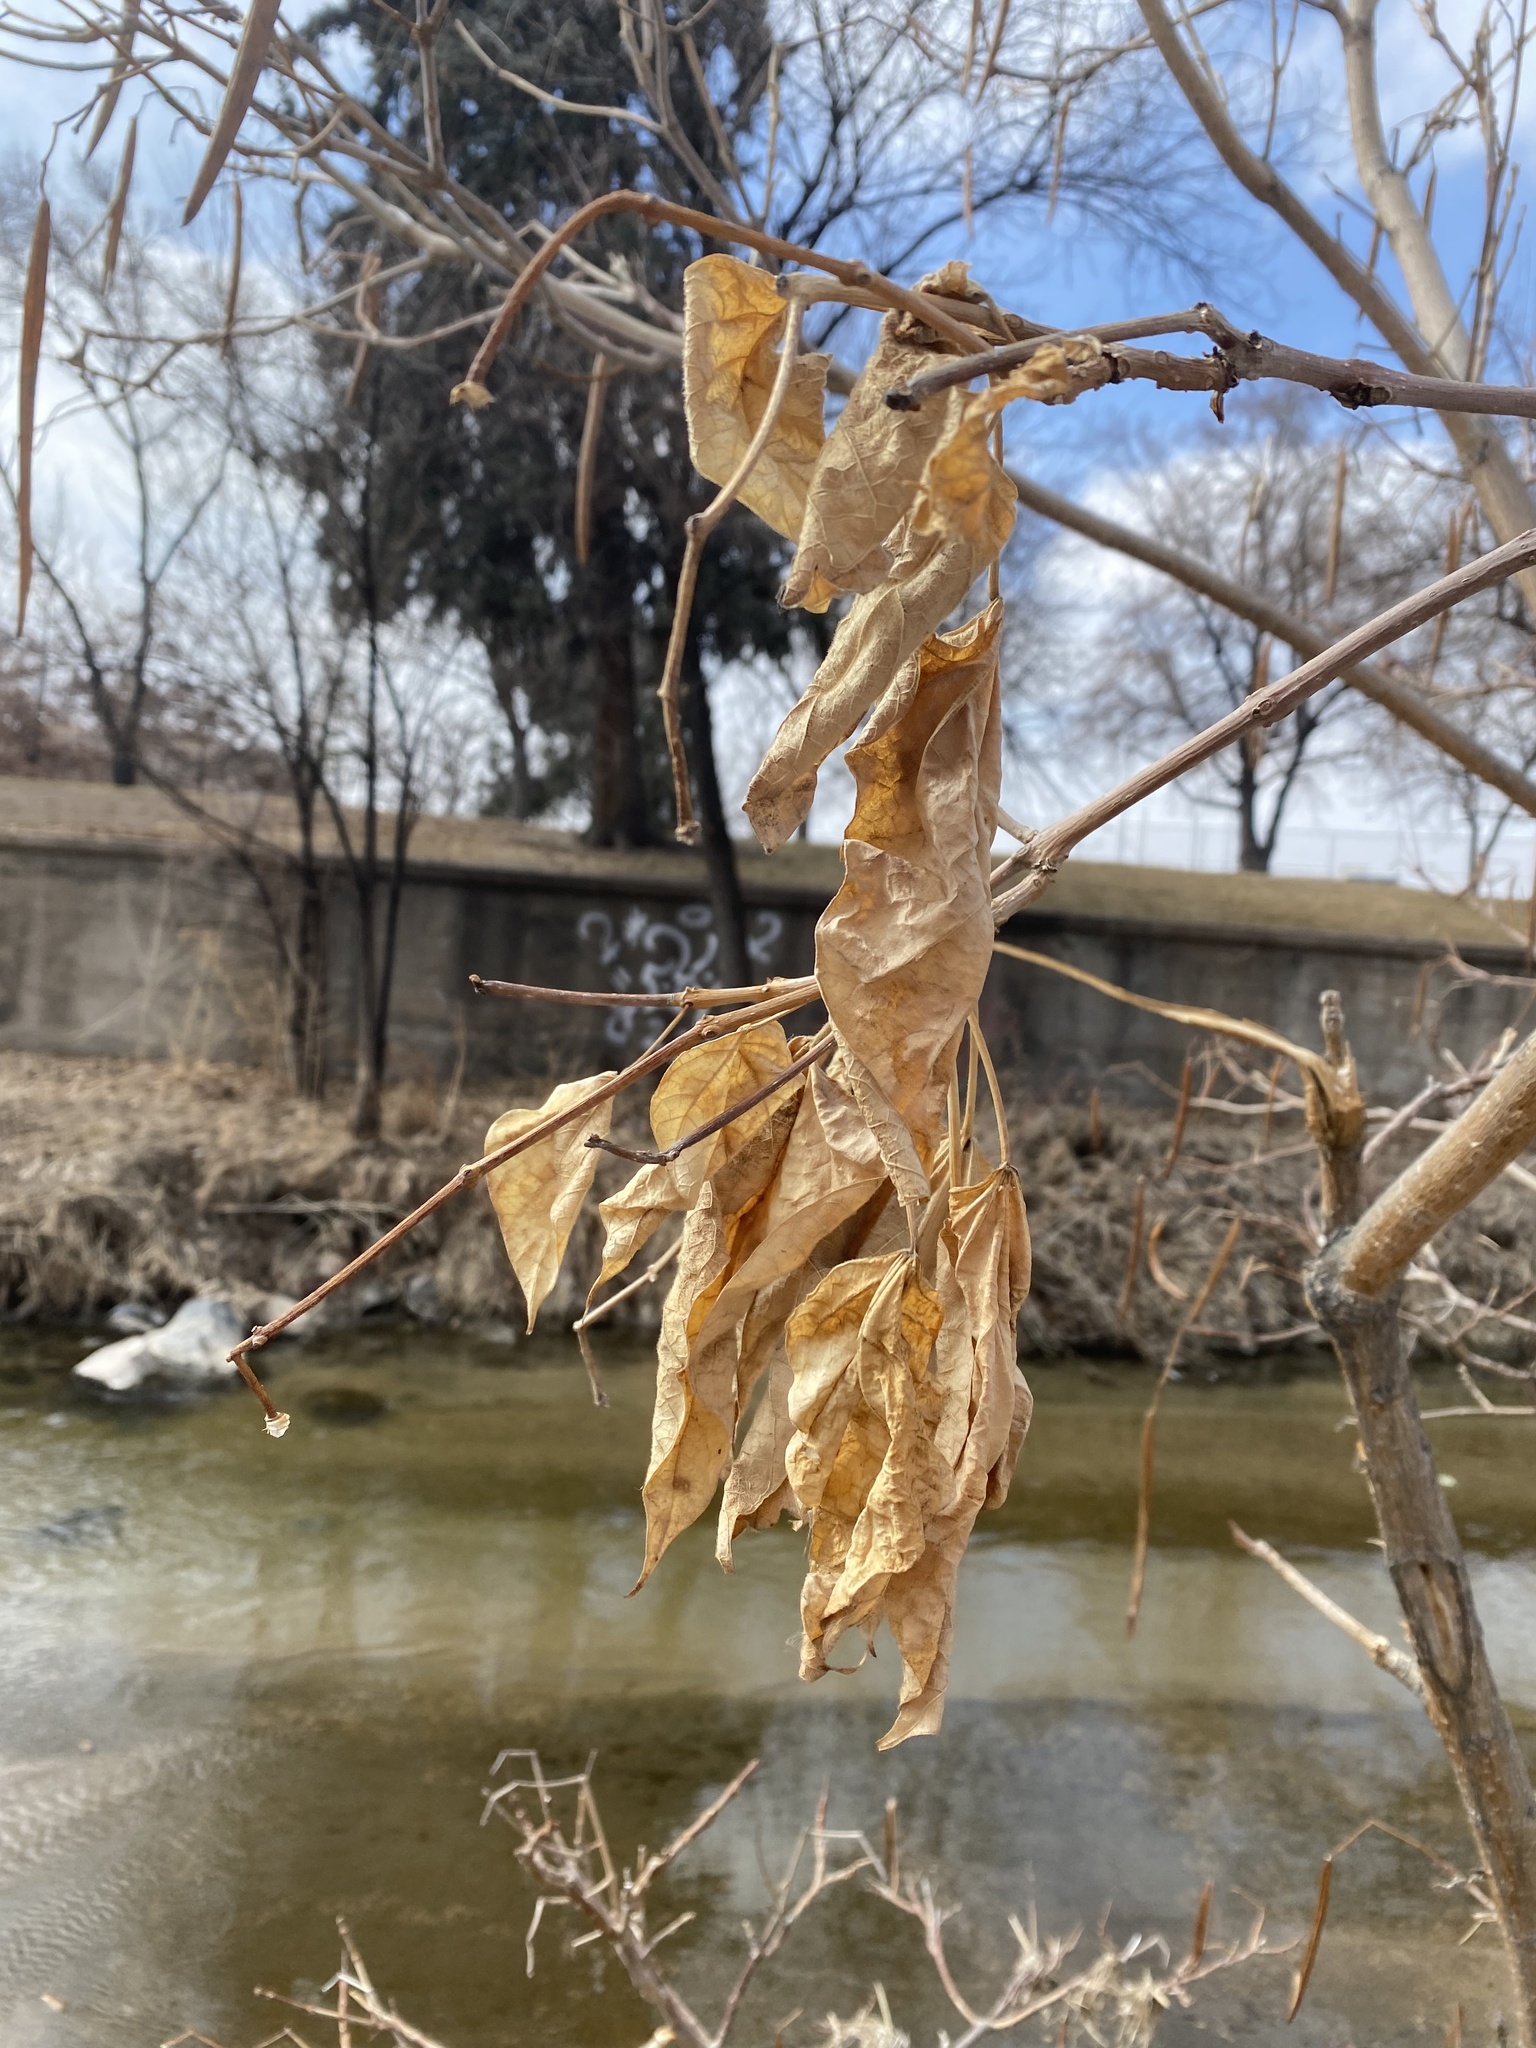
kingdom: Plantae
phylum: Tracheophyta
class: Magnoliopsida
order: Lamiales
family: Bignoniaceae
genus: Catalpa
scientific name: Catalpa speciosa
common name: Northern catalpa
